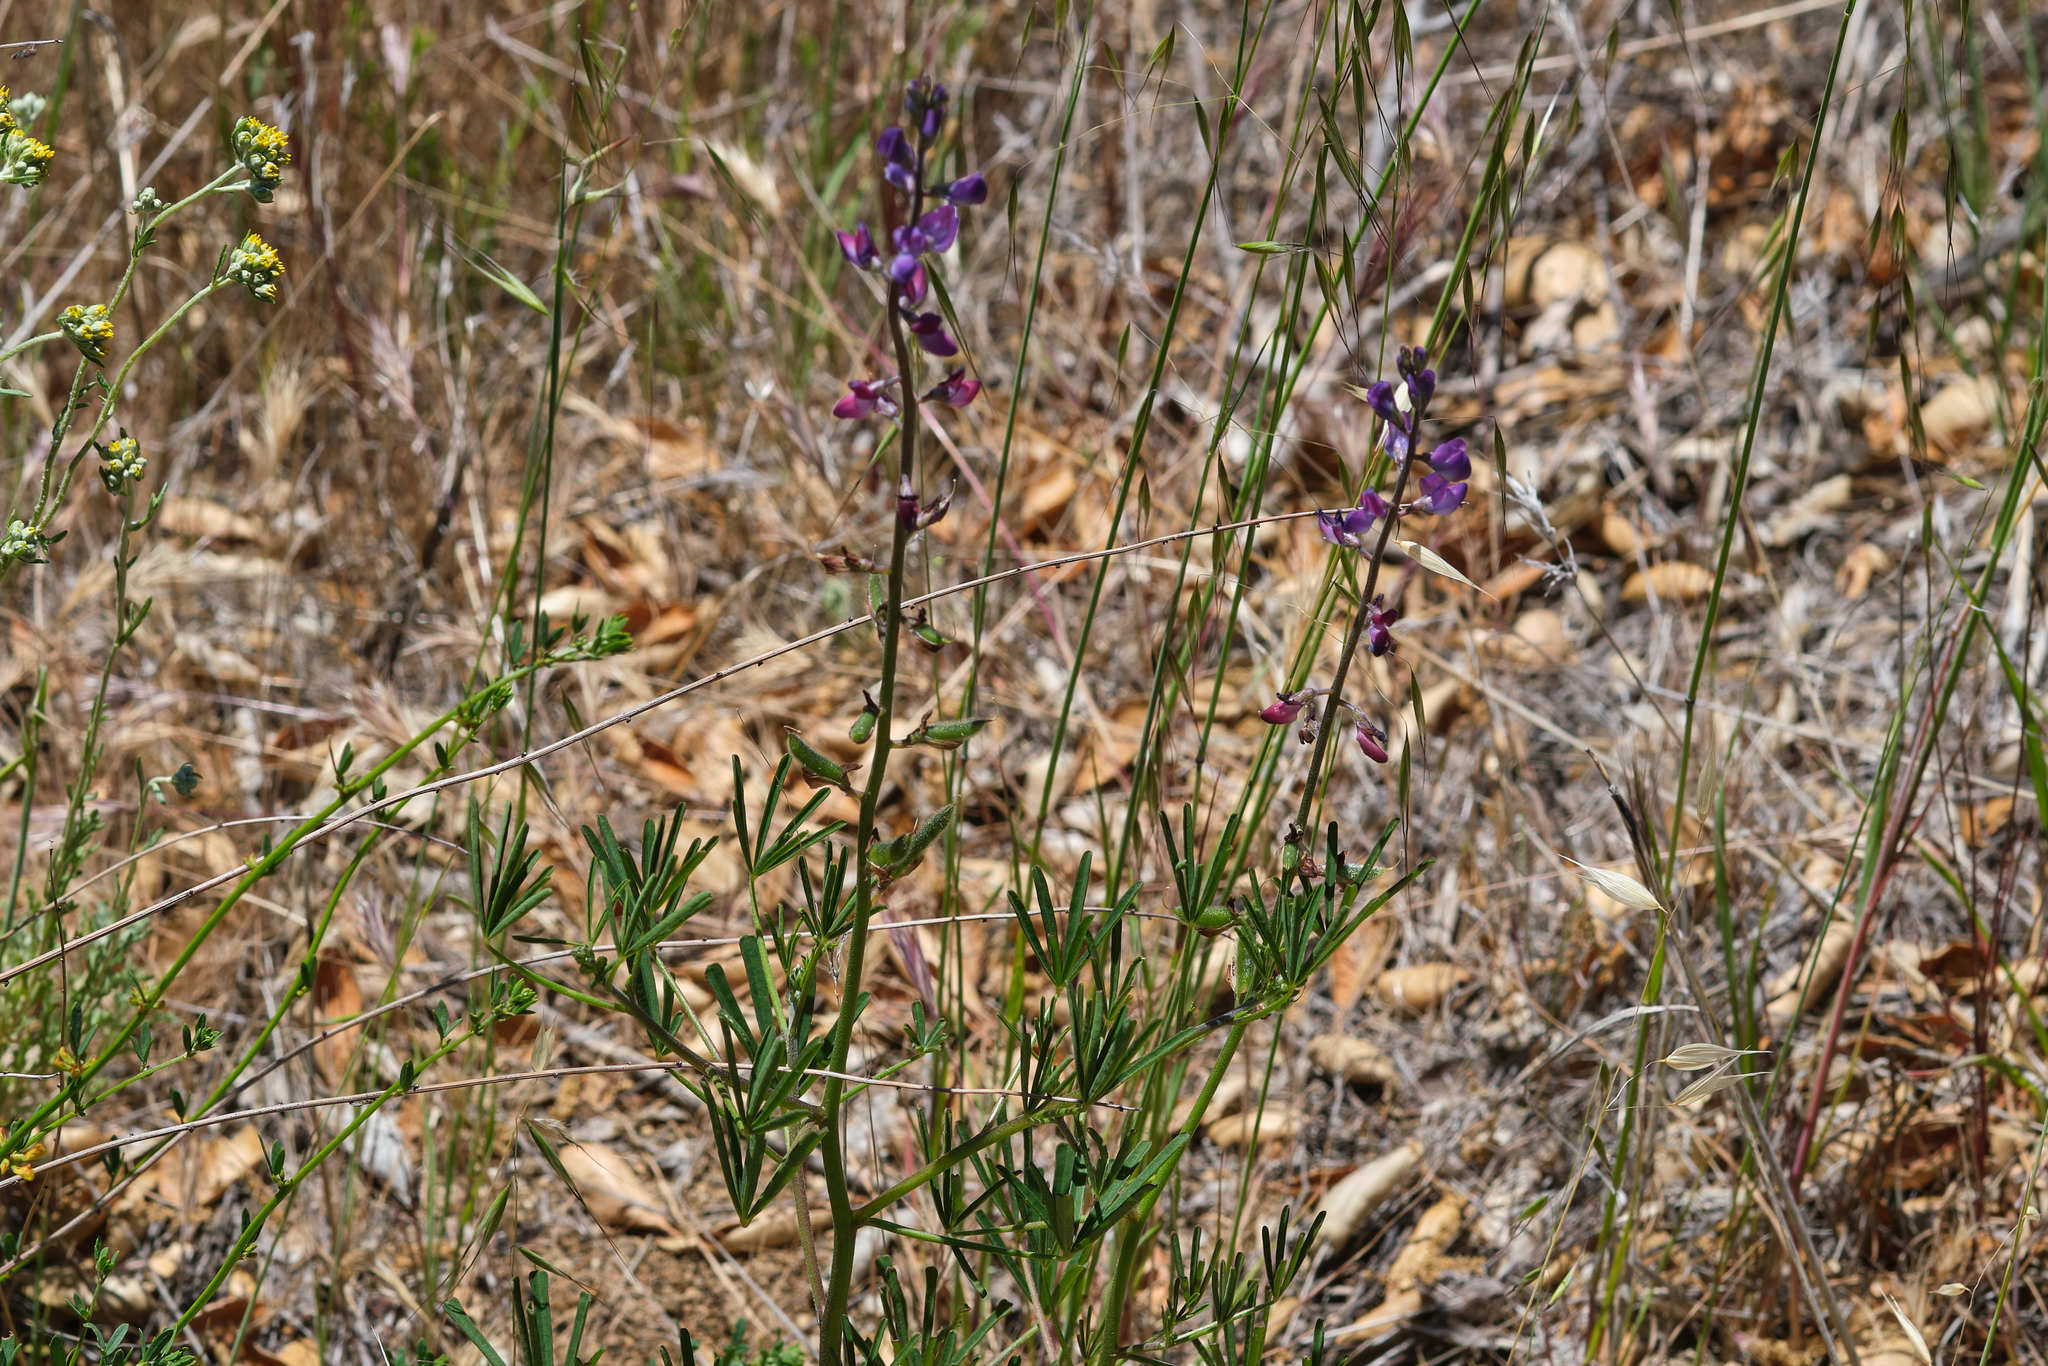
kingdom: Plantae
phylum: Tracheophyta
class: Magnoliopsida
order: Fabales
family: Fabaceae
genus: Lupinus
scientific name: Lupinus truncatus
